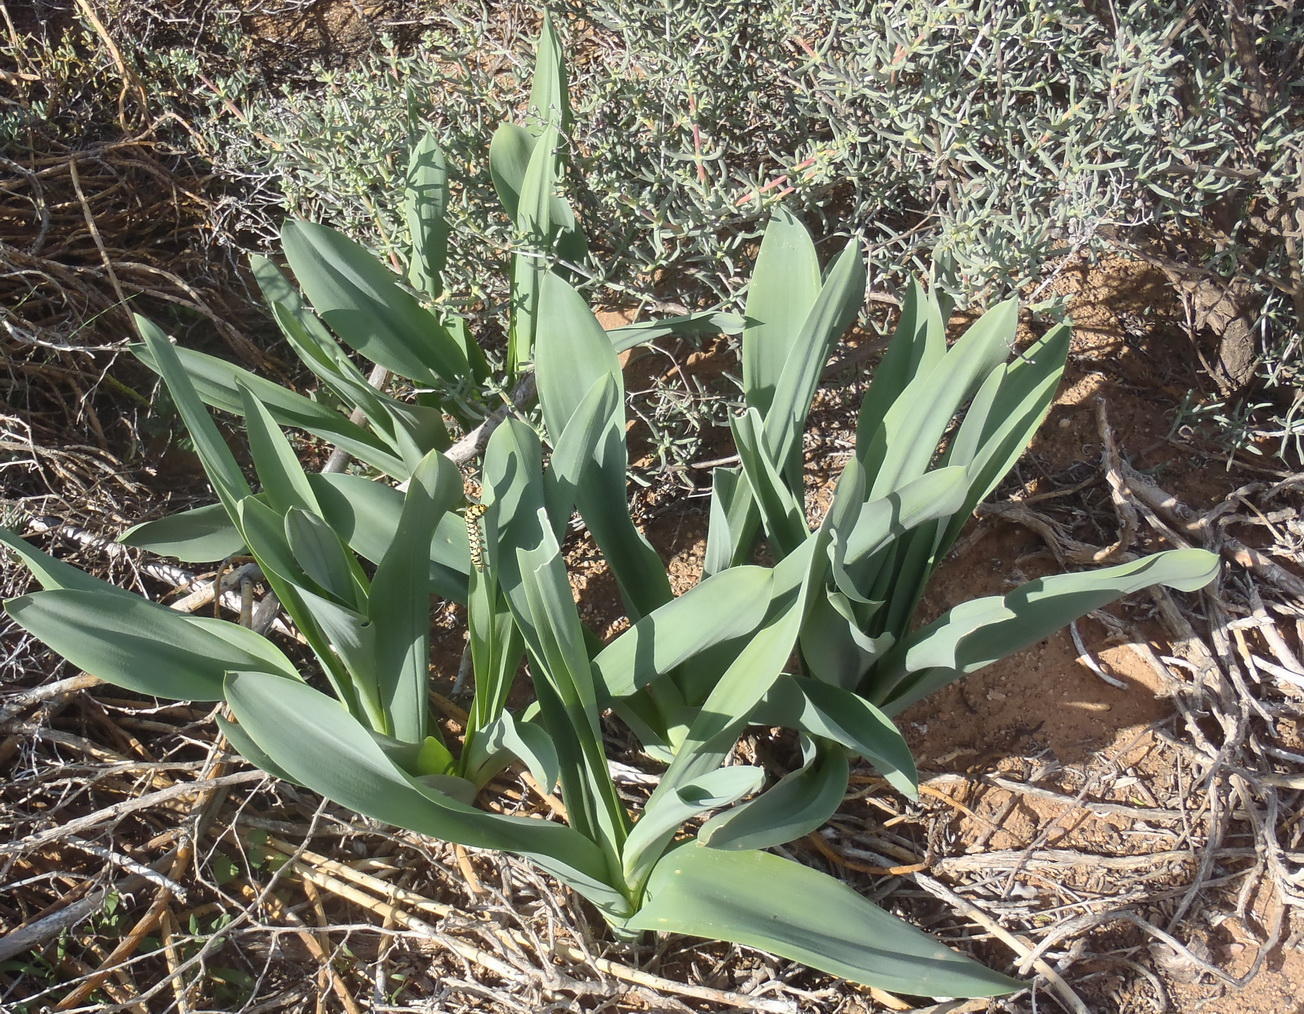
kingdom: Plantae
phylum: Tracheophyta
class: Liliopsida
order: Asparagales
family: Asparagaceae
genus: Drimia
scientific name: Drimia capensis
